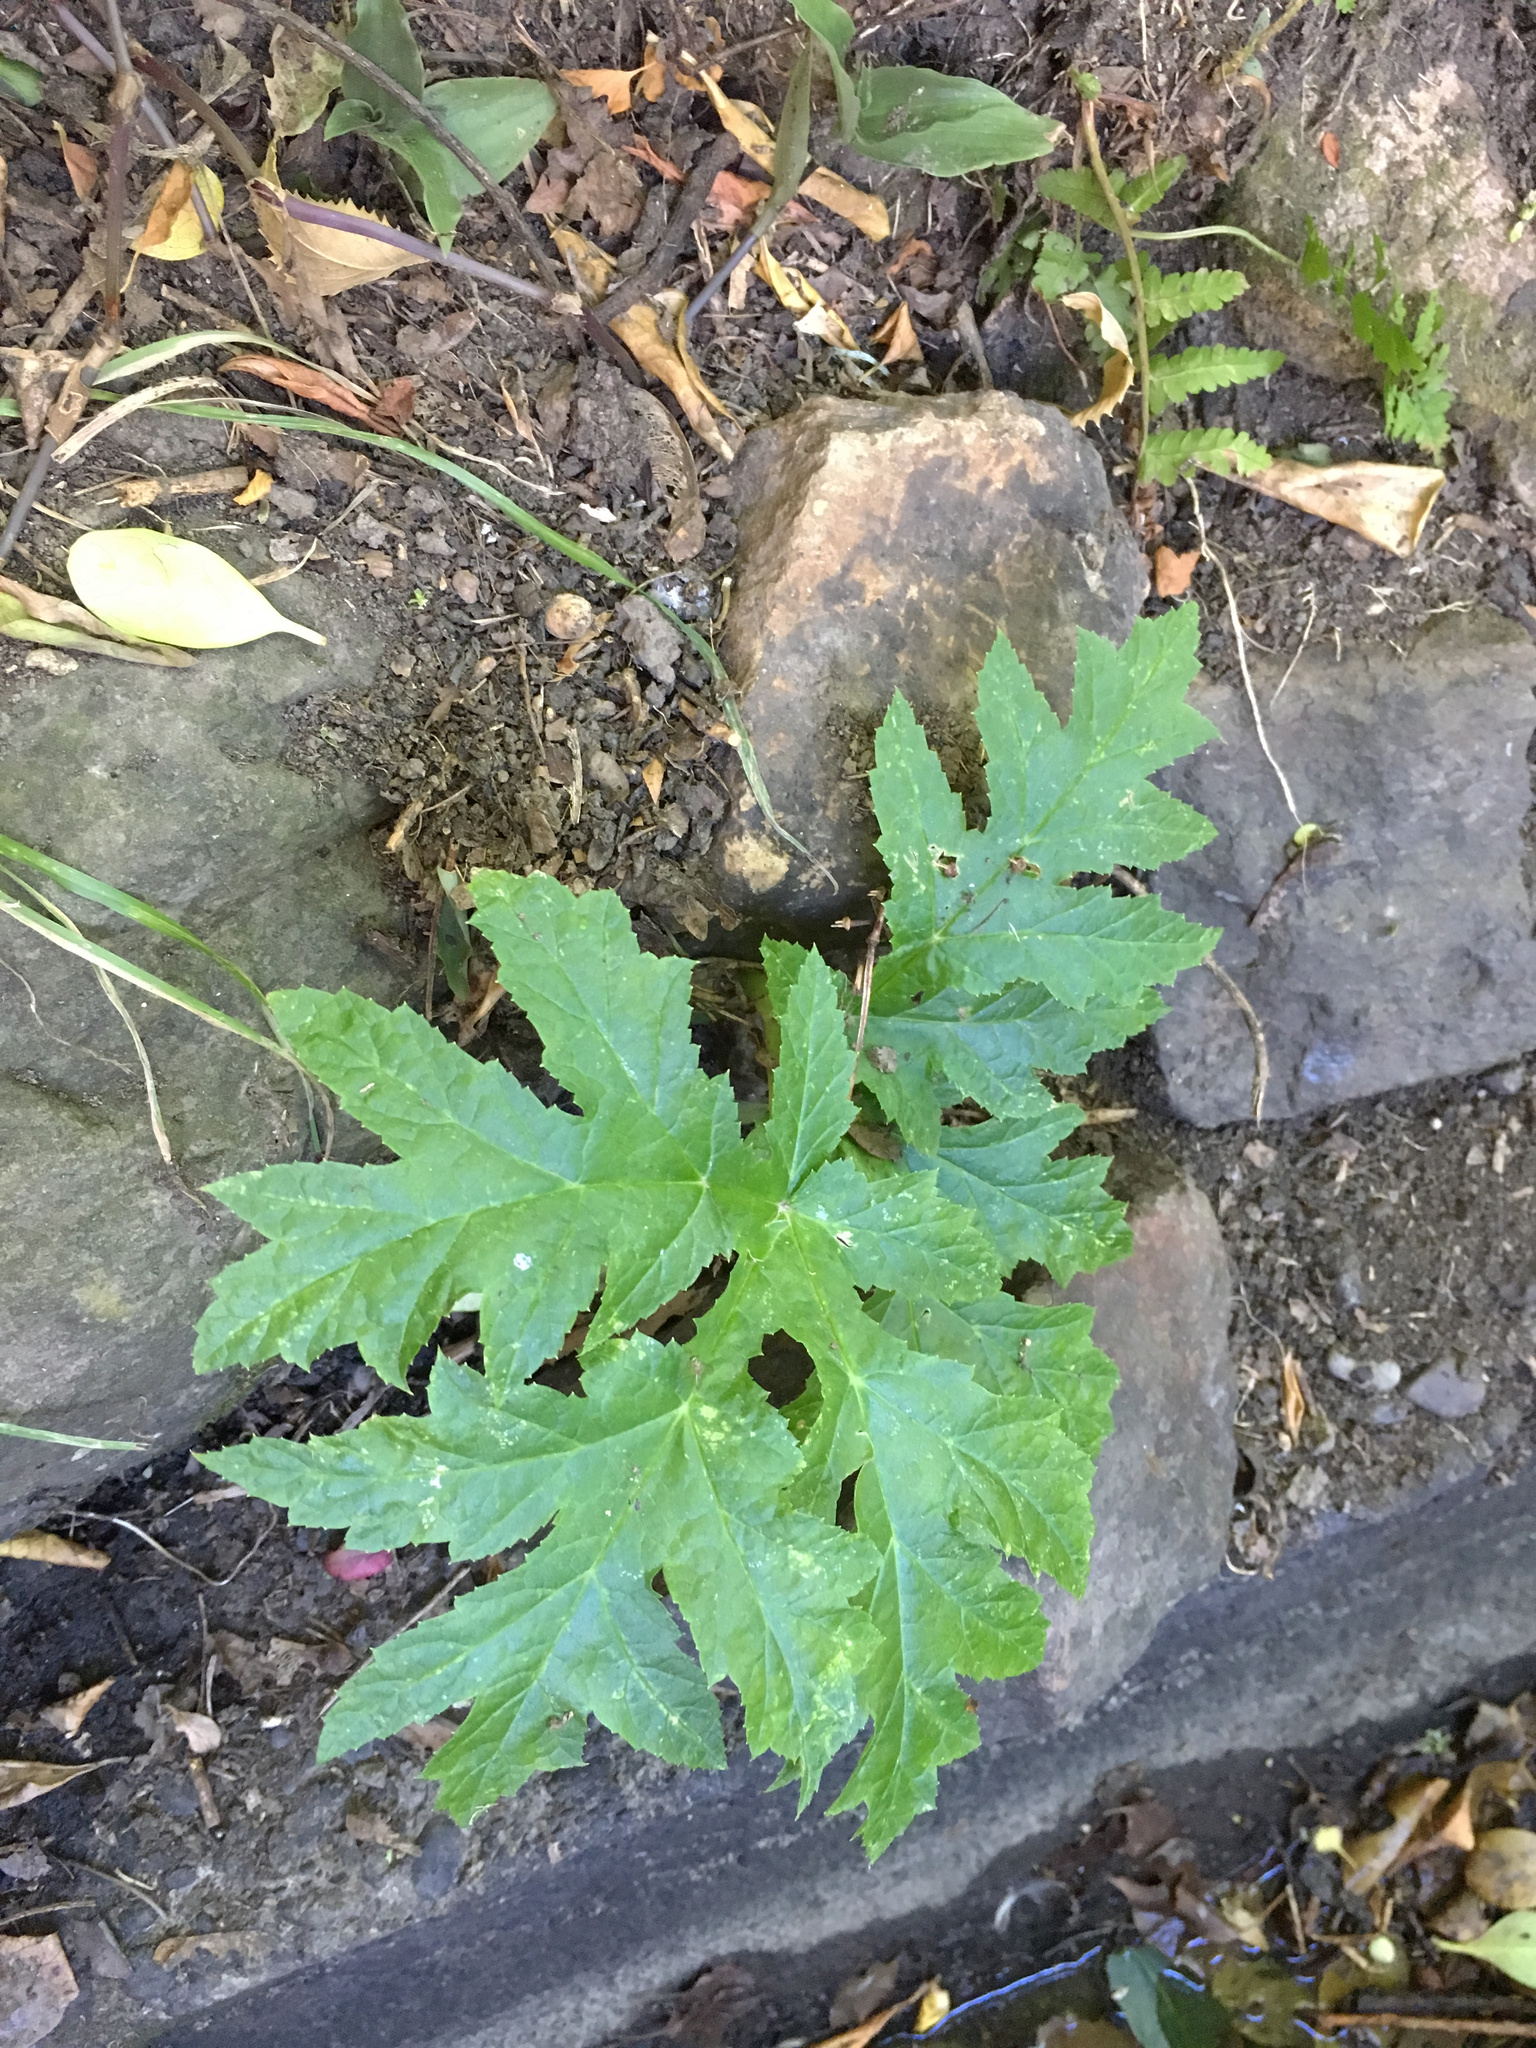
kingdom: Plantae
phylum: Tracheophyta
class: Magnoliopsida
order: Apiales
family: Apiaceae
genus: Heracleum
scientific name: Heracleum mantegazzianum
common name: Giant hogweed
